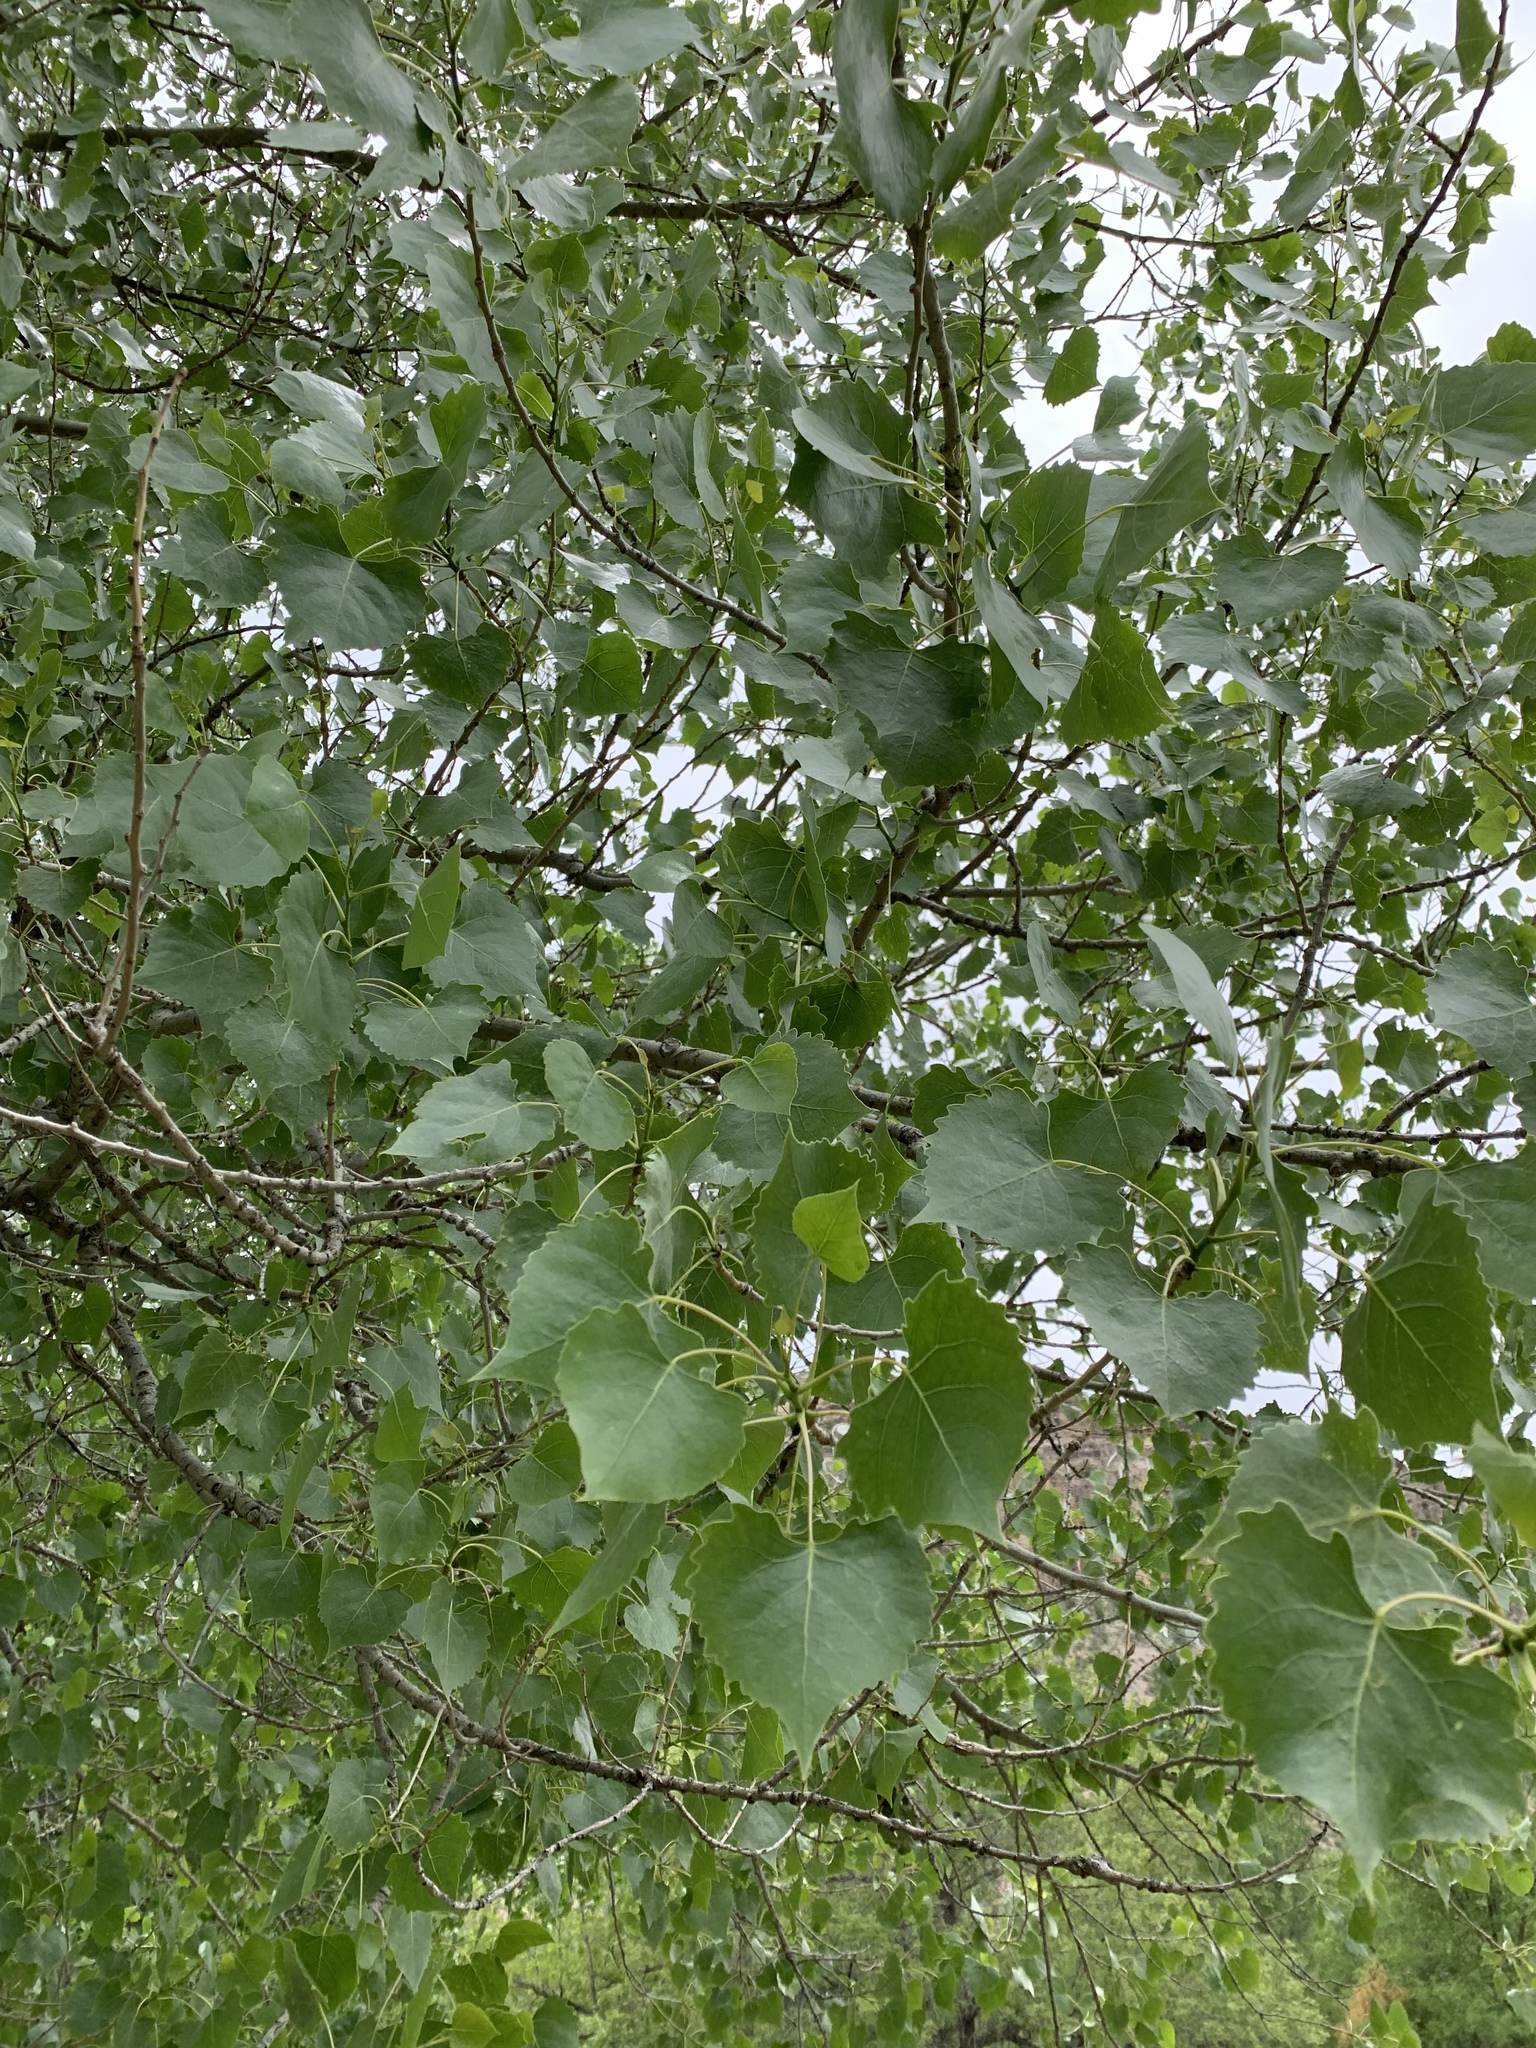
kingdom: Plantae
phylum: Tracheophyta
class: Magnoliopsida
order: Malpighiales
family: Salicaceae
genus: Populus
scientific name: Populus fremontii
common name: Fremont's cottonwood
